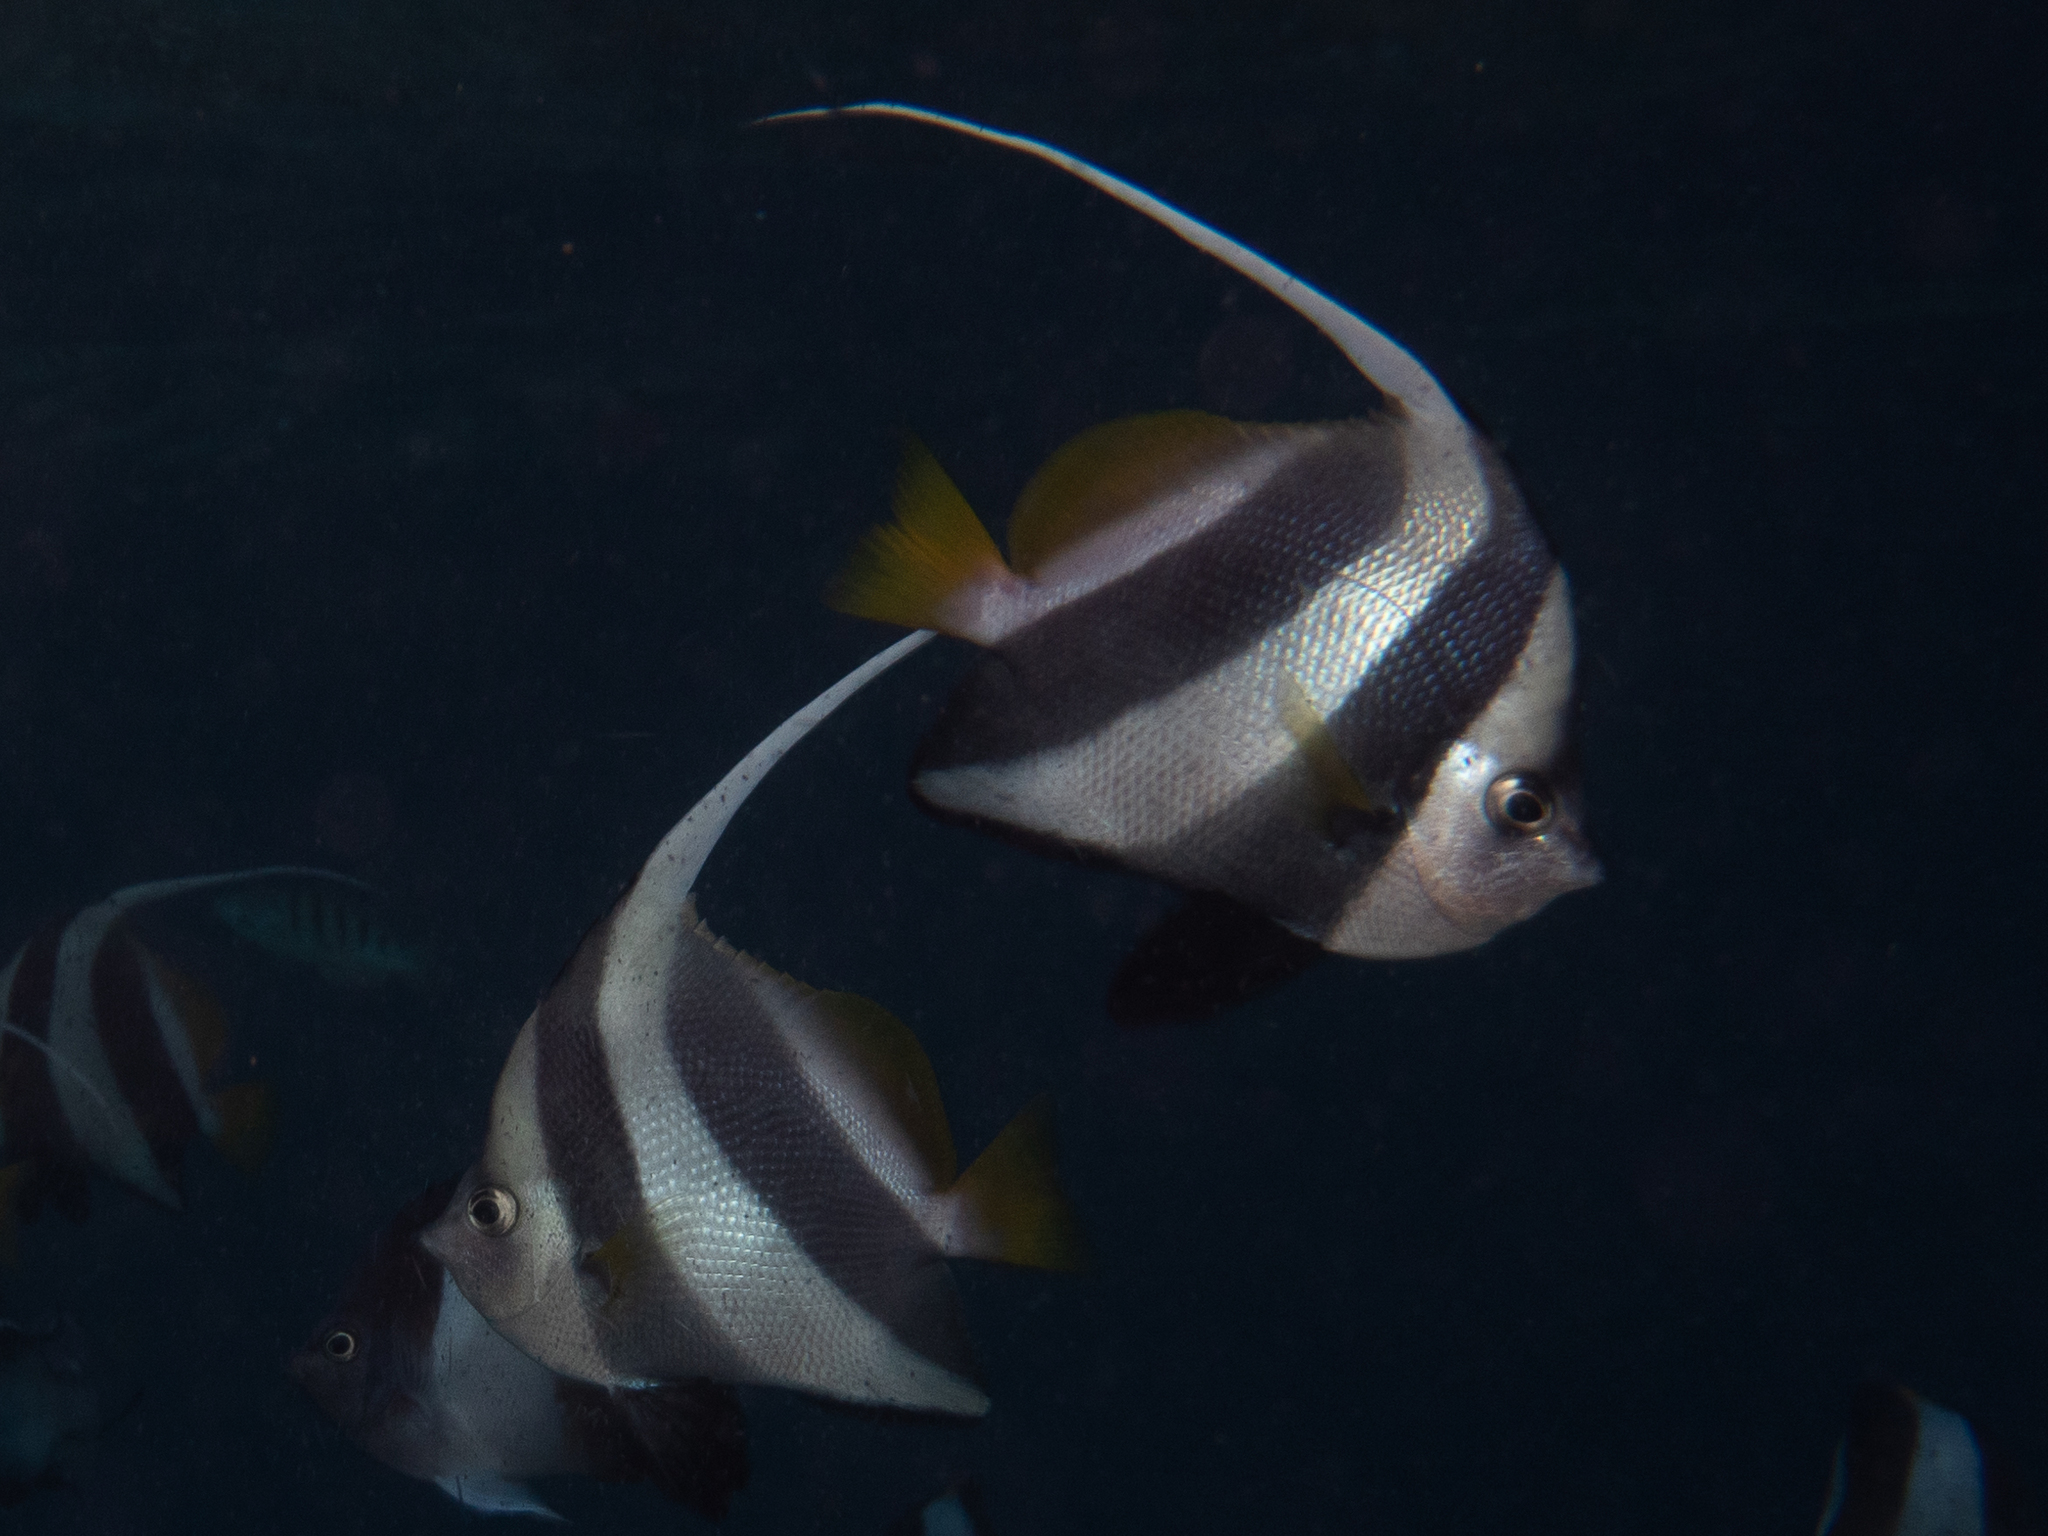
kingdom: Animalia
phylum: Chordata
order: Perciformes
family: Chaetodontidae
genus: Heniochus
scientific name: Heniochus diphreutes
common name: Pennantfish
